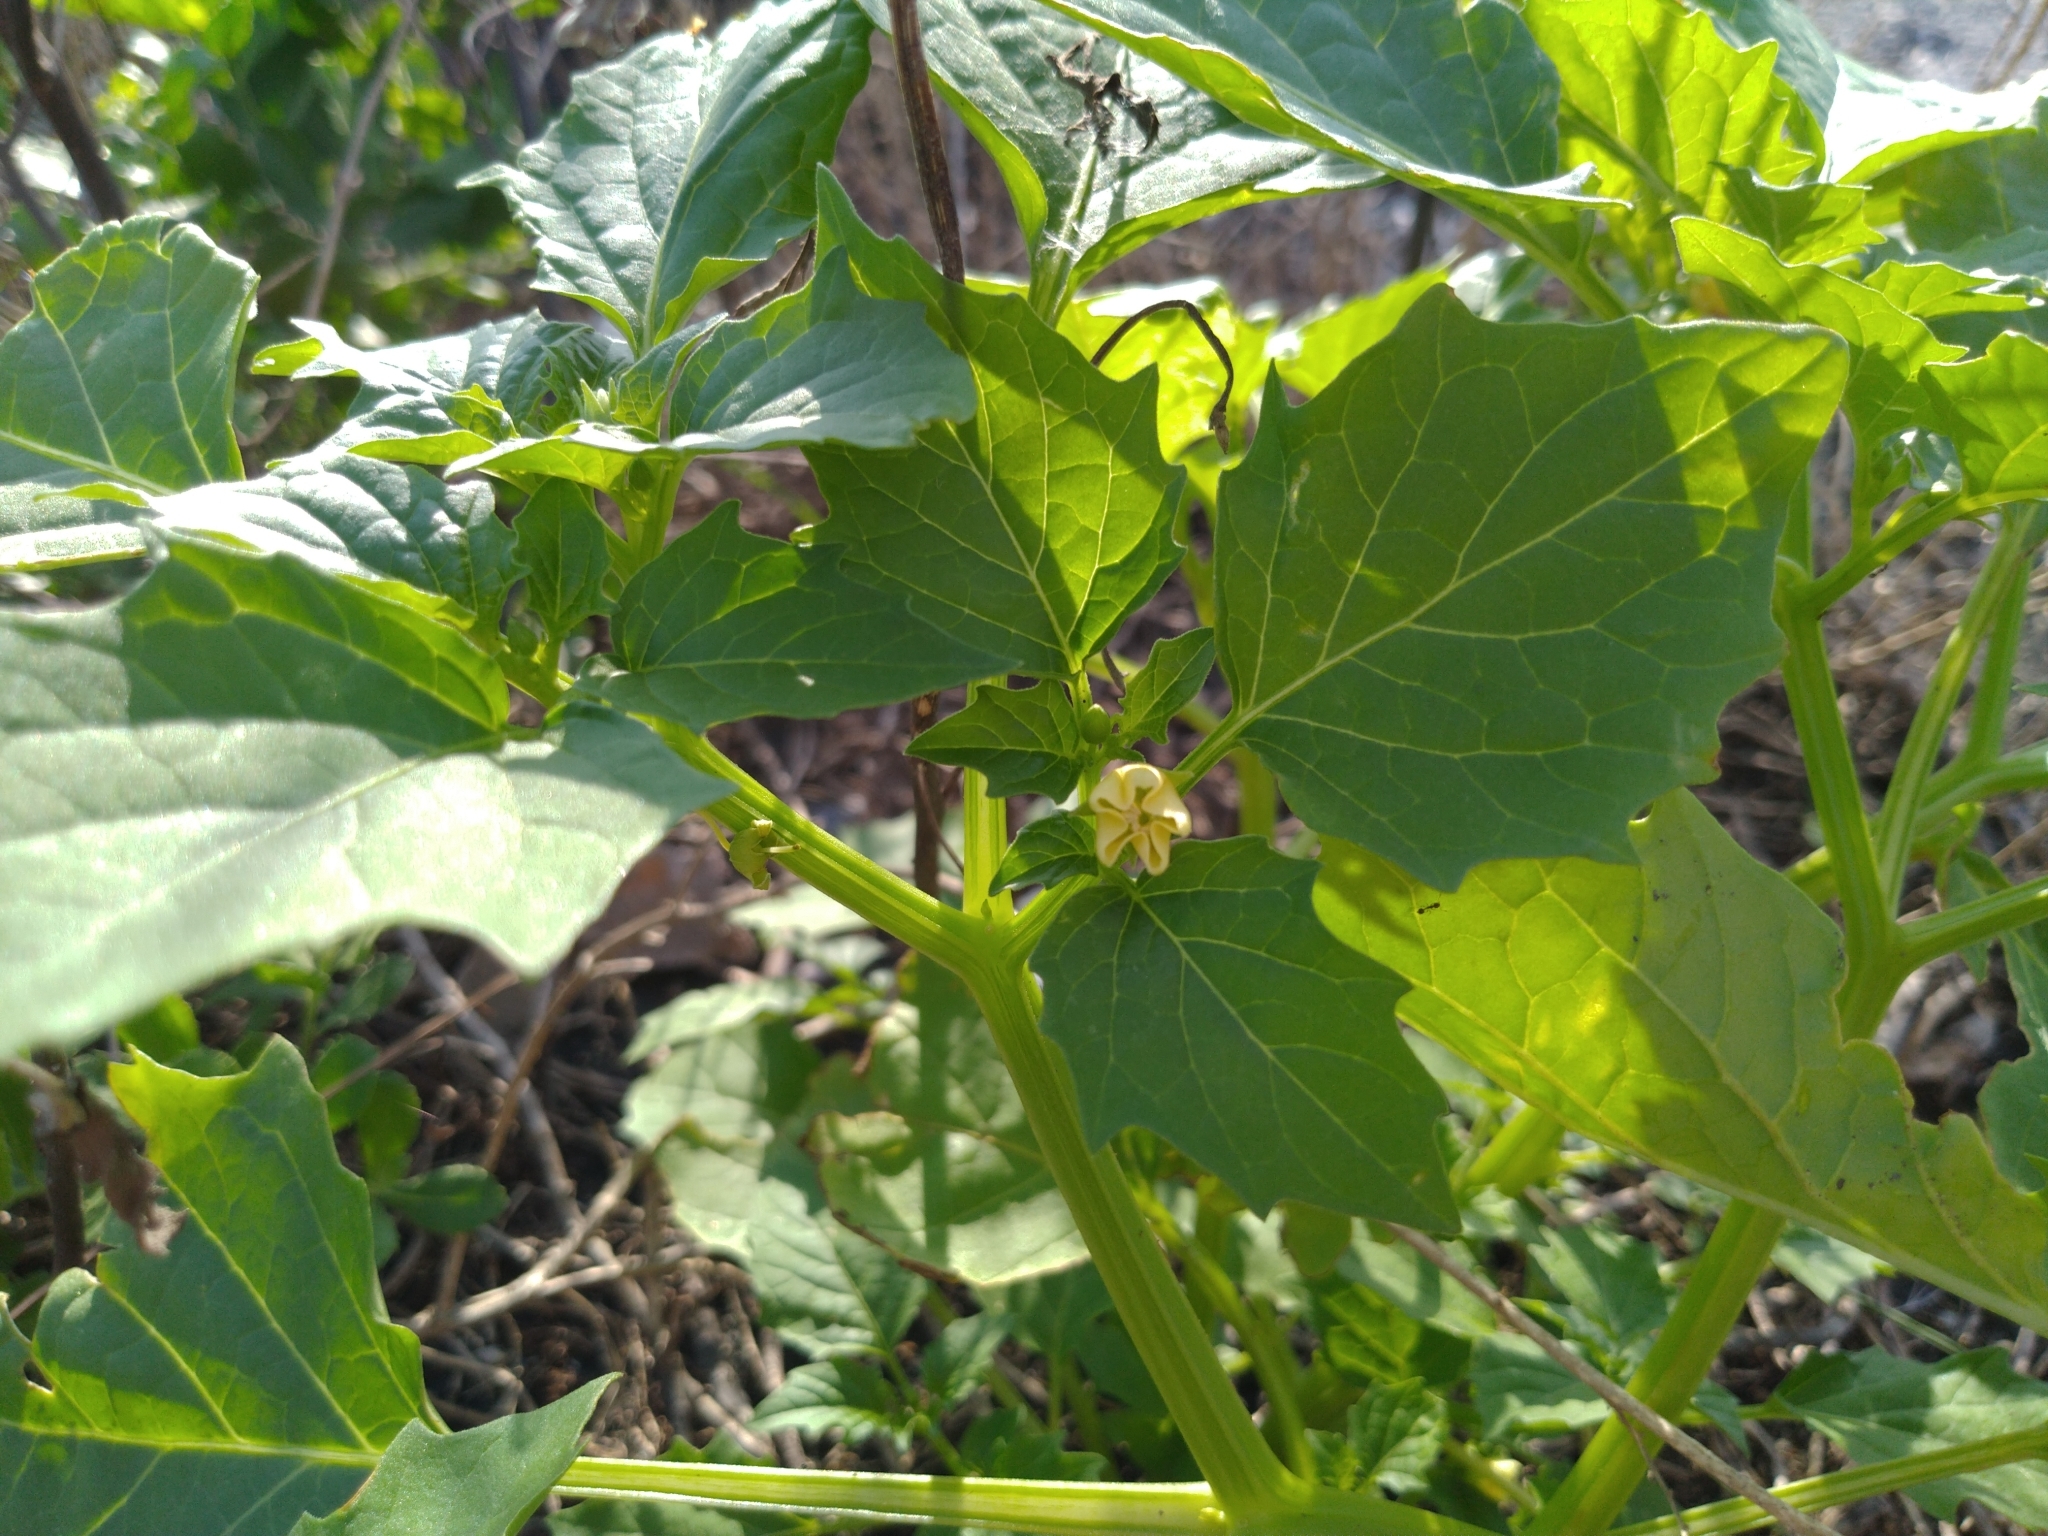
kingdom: Plantae
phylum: Tracheophyta
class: Magnoliopsida
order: Solanales
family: Solanaceae
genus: Physalis
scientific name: Physalis angulata
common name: Angular winter-cherry
